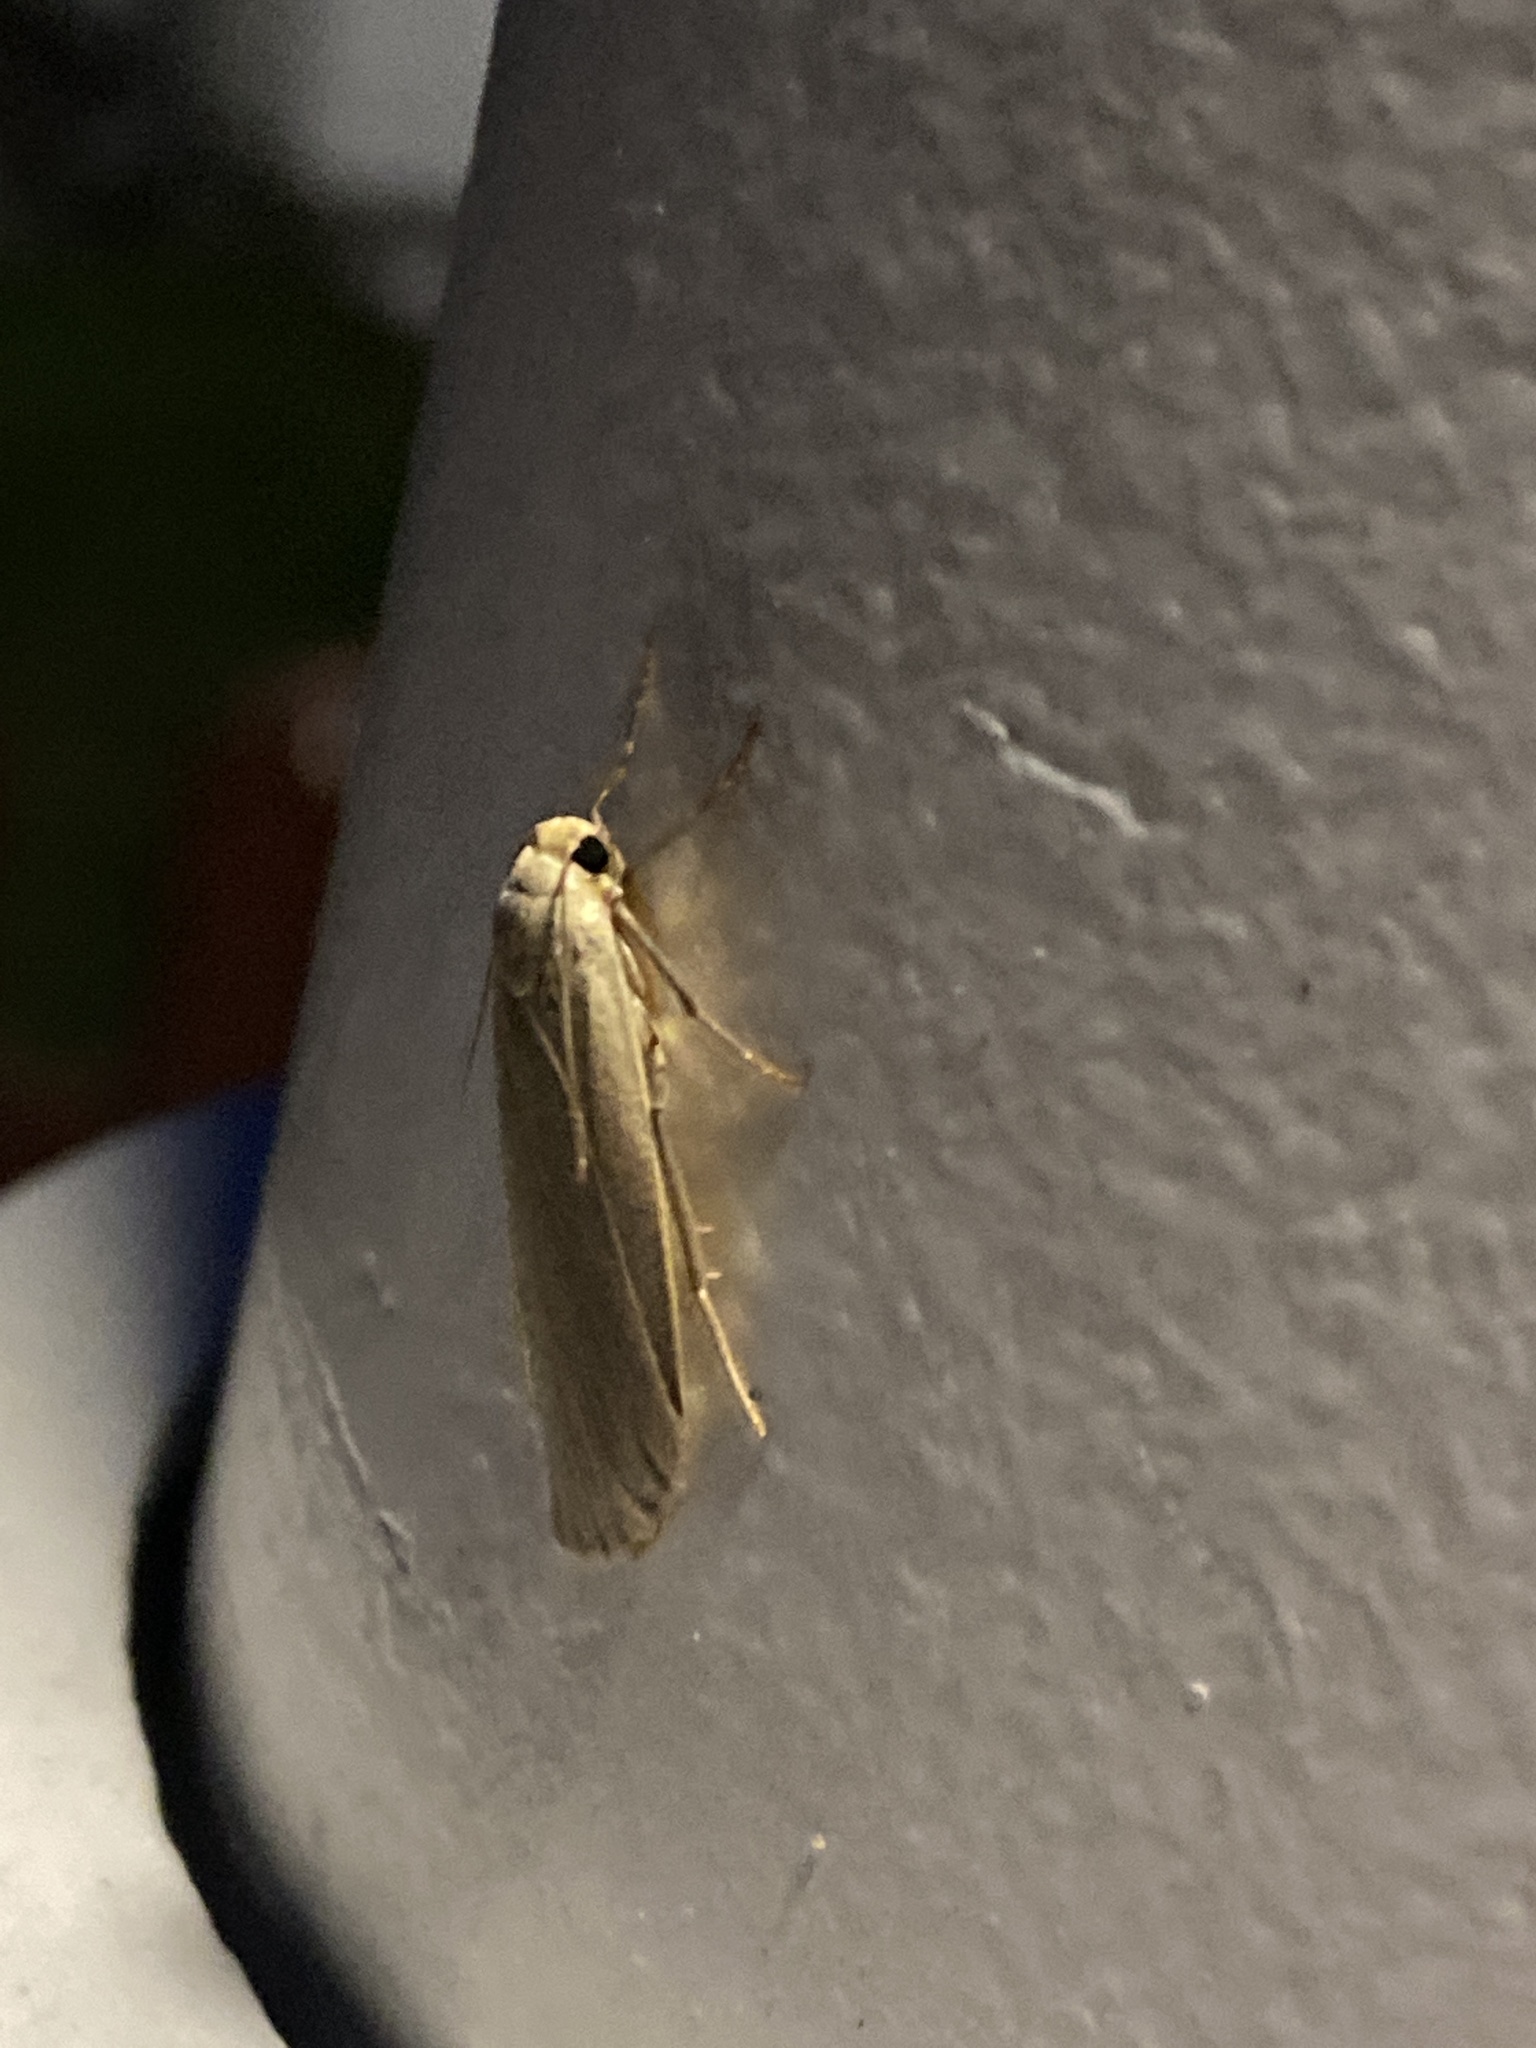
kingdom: Animalia
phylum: Arthropoda
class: Insecta
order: Lepidoptera
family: Erebidae
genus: Collita
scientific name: Collita griseola
